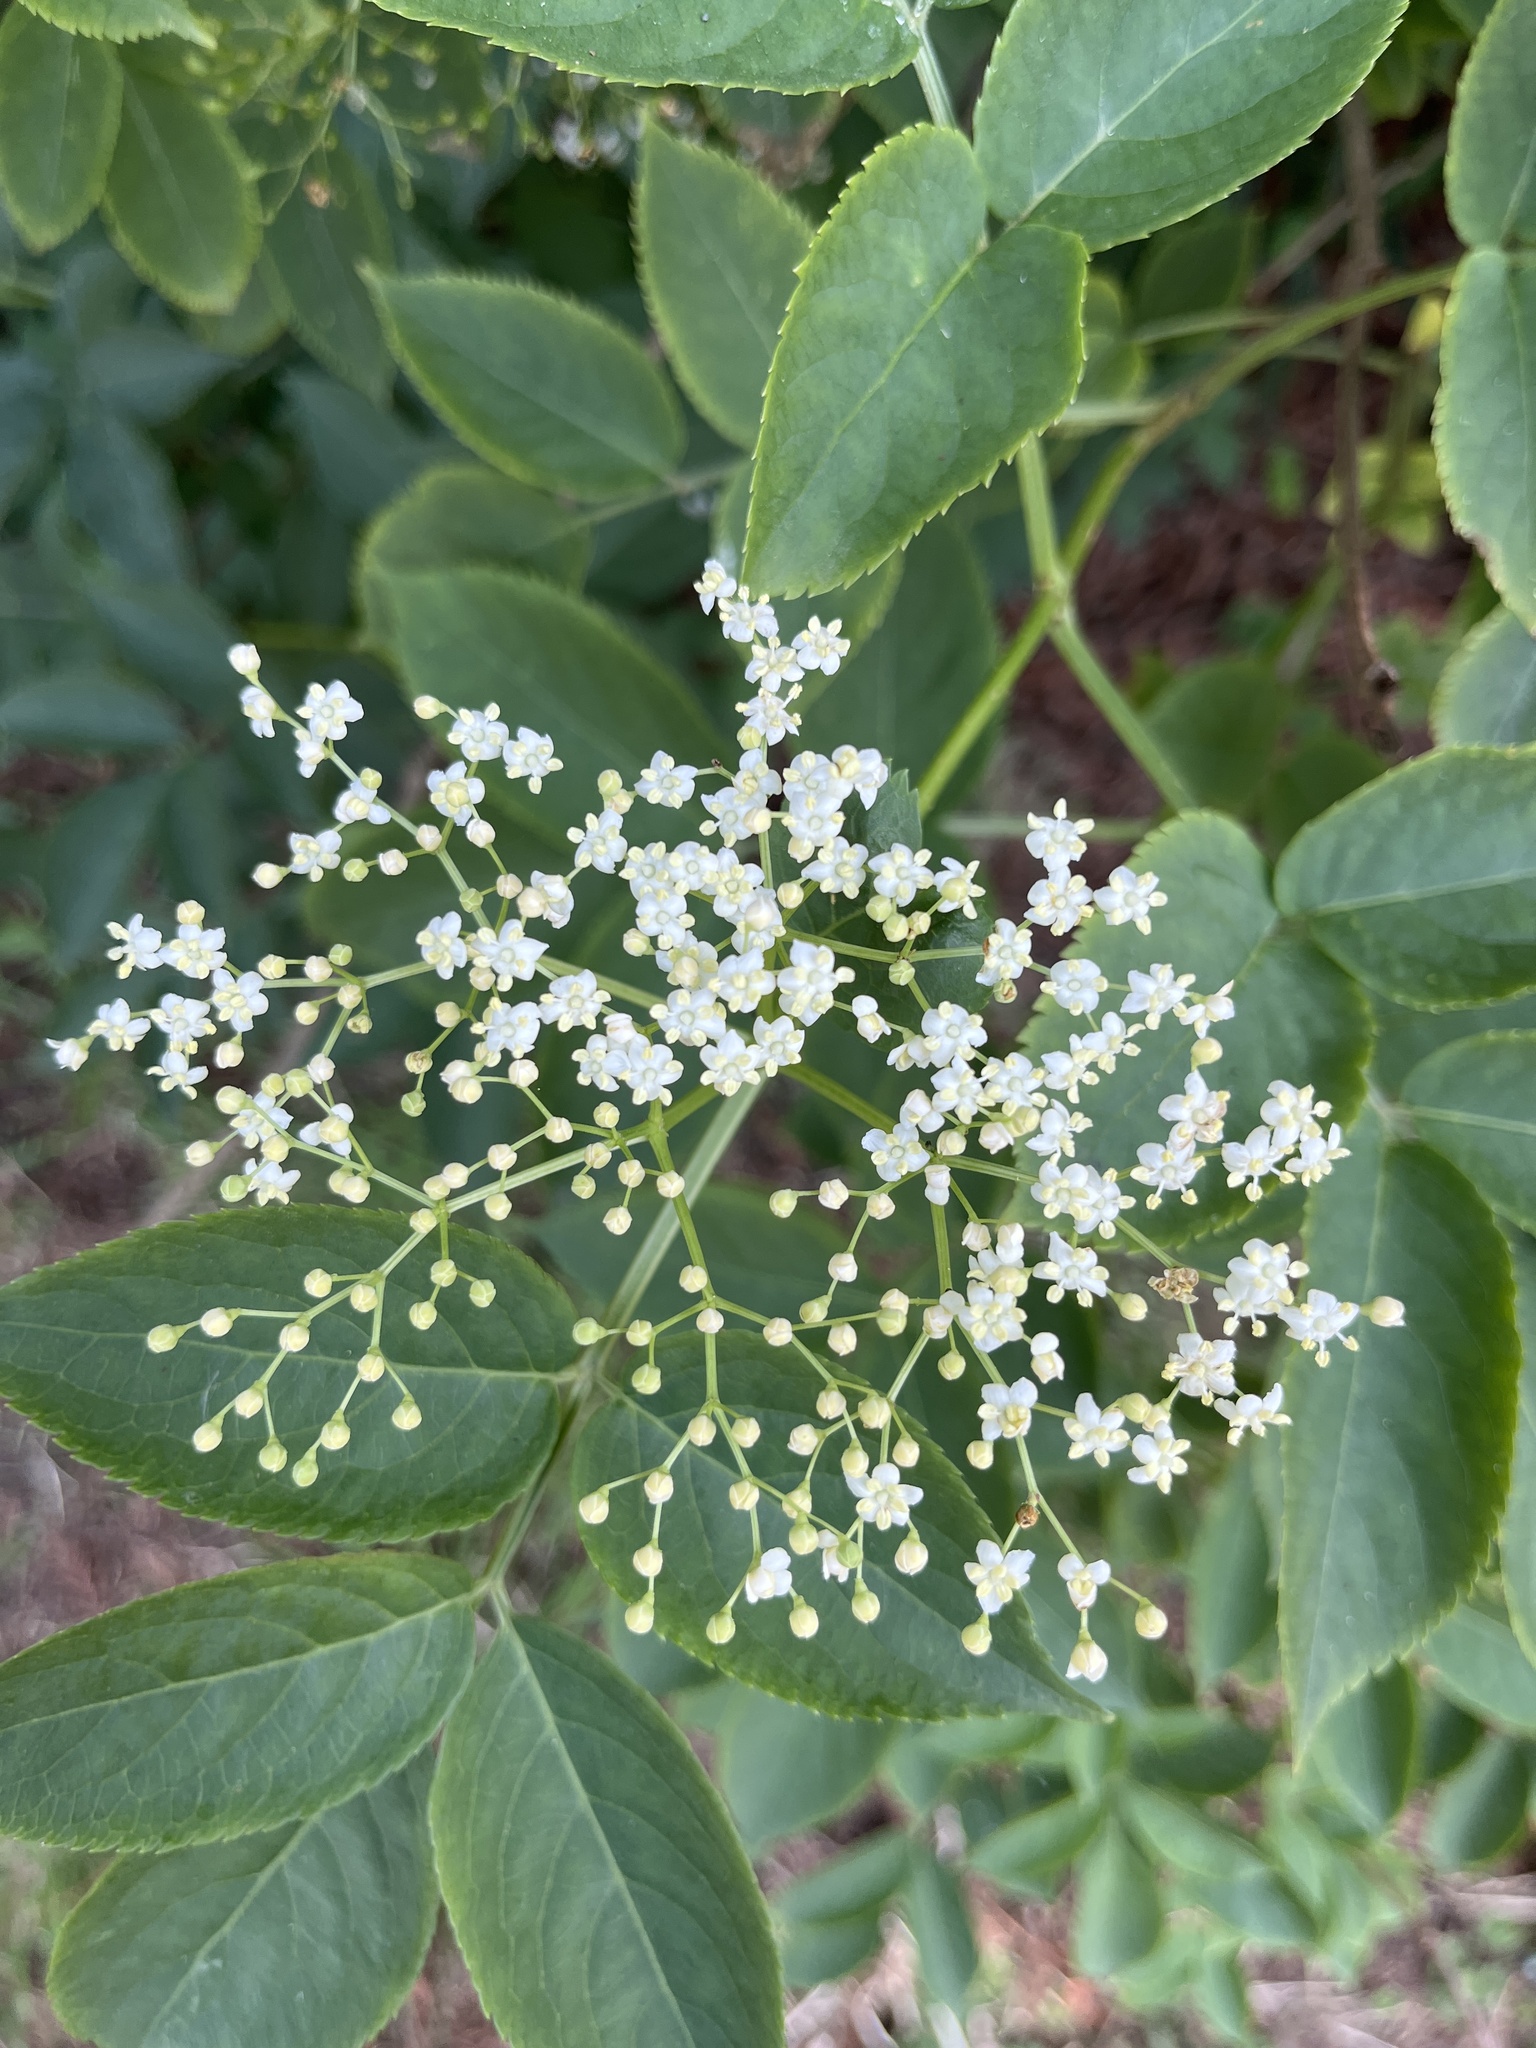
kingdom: Plantae
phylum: Tracheophyta
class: Magnoliopsida
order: Dipsacales
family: Viburnaceae
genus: Sambucus
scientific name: Sambucus nigra
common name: Elder
